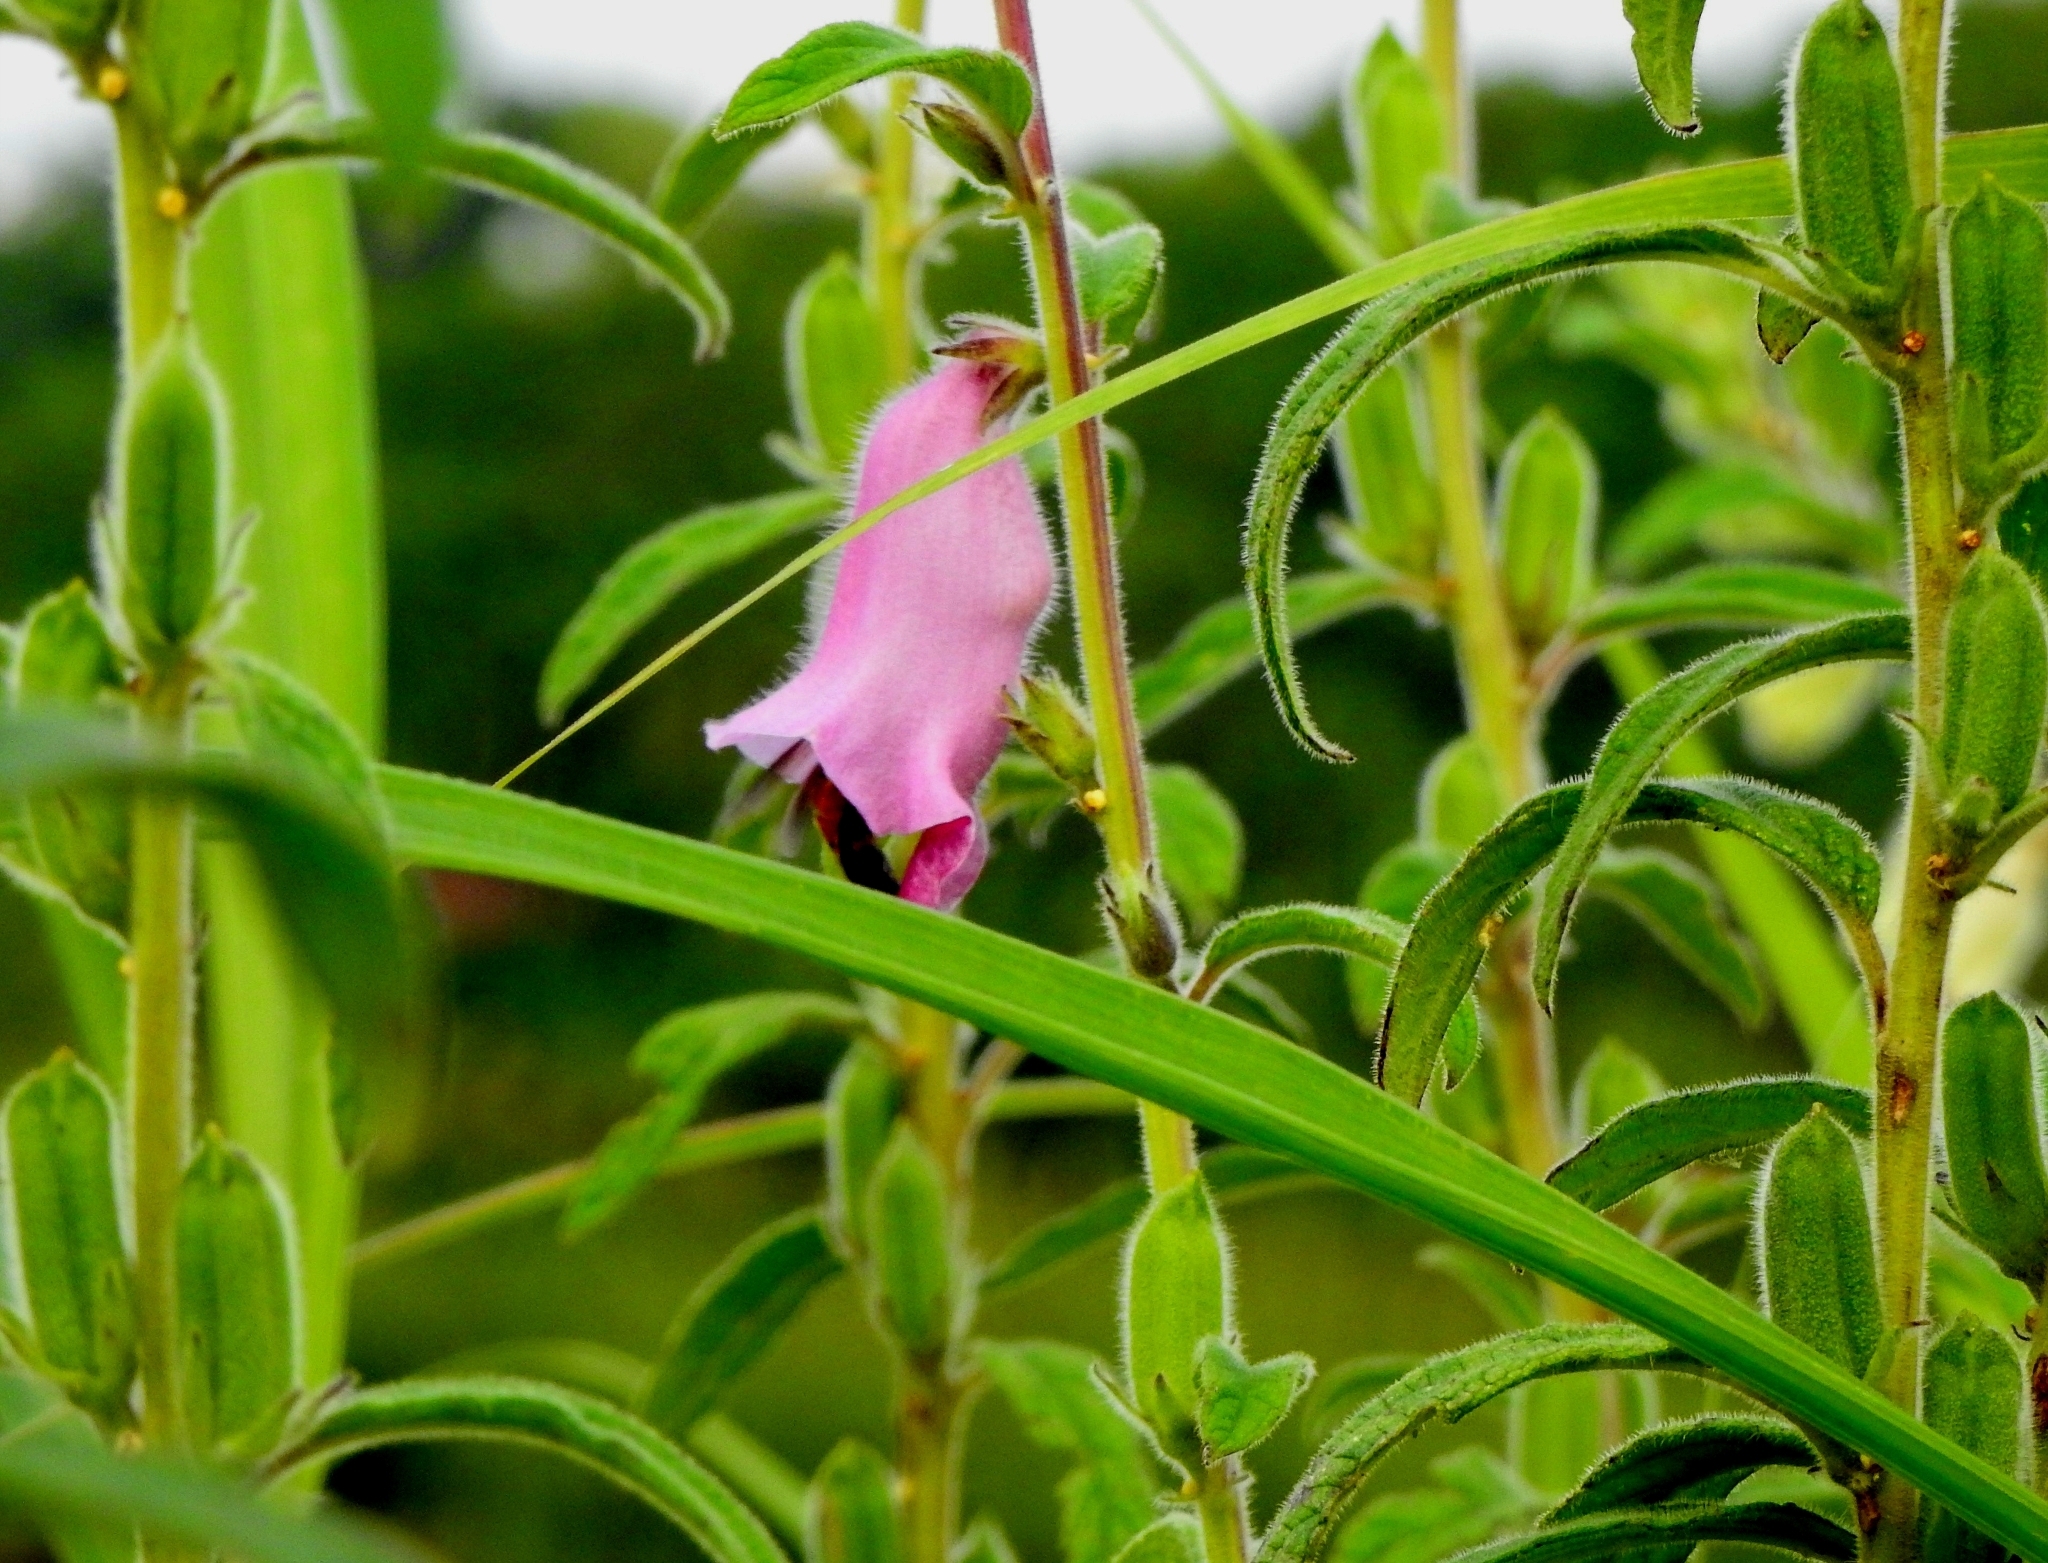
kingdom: Plantae
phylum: Tracheophyta
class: Magnoliopsida
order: Lamiales
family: Pedaliaceae
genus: Sesamum
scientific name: Sesamum indicum
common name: Sesame
